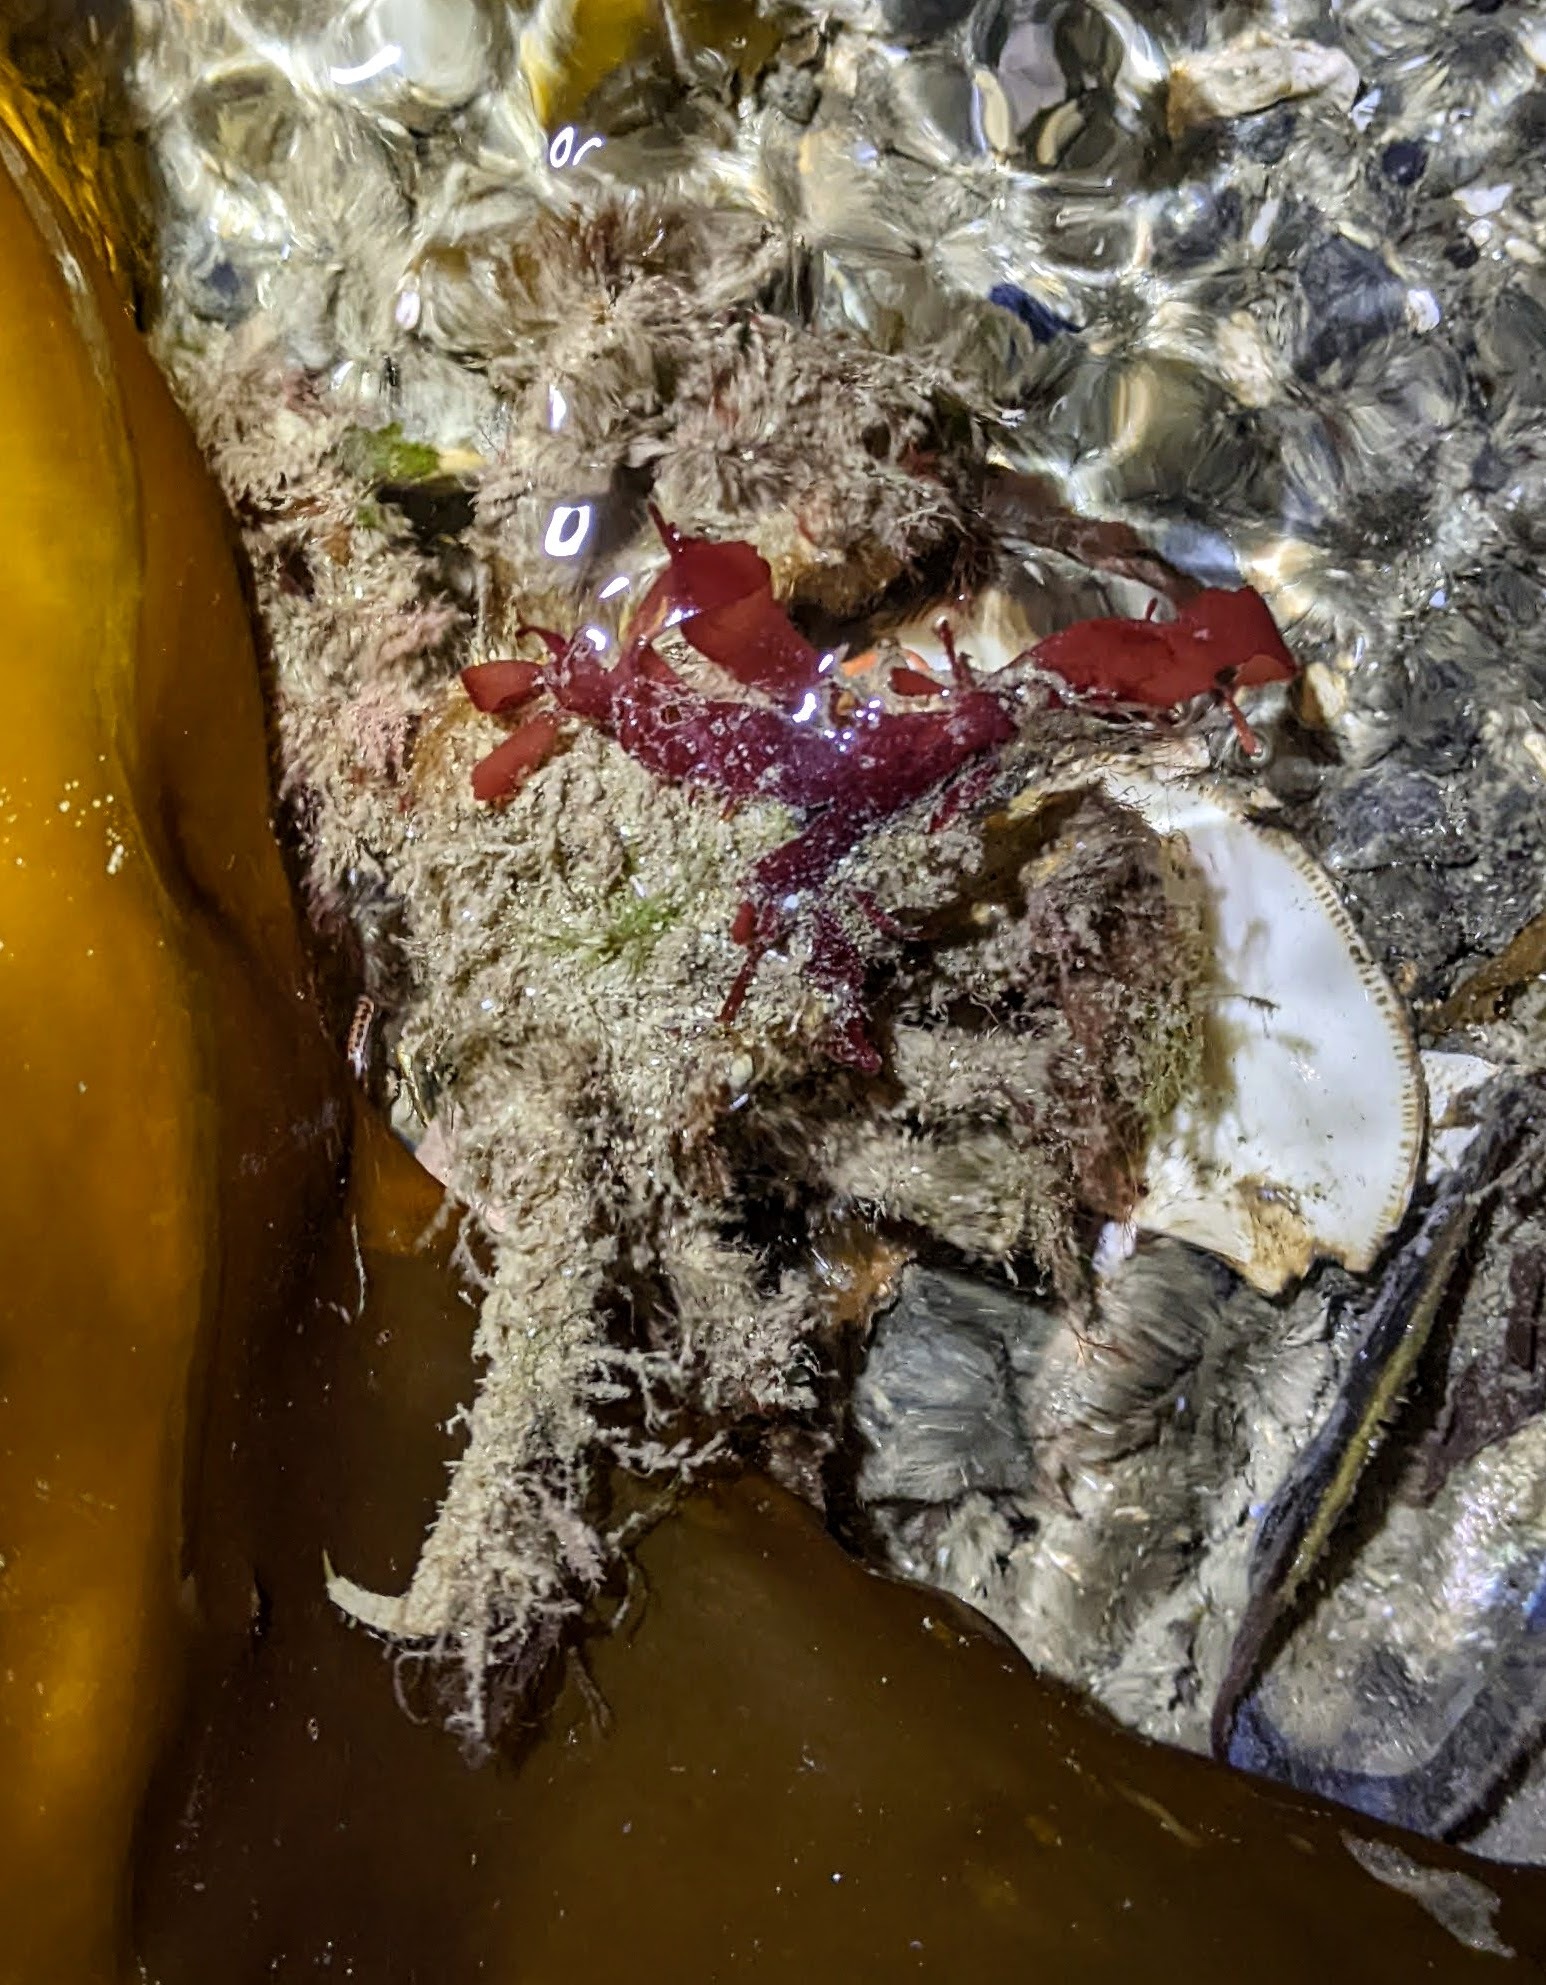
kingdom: Animalia
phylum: Arthropoda
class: Malacostraca
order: Decapoda
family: Oregoniidae
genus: Oregonia
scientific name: Oregonia gracilis
